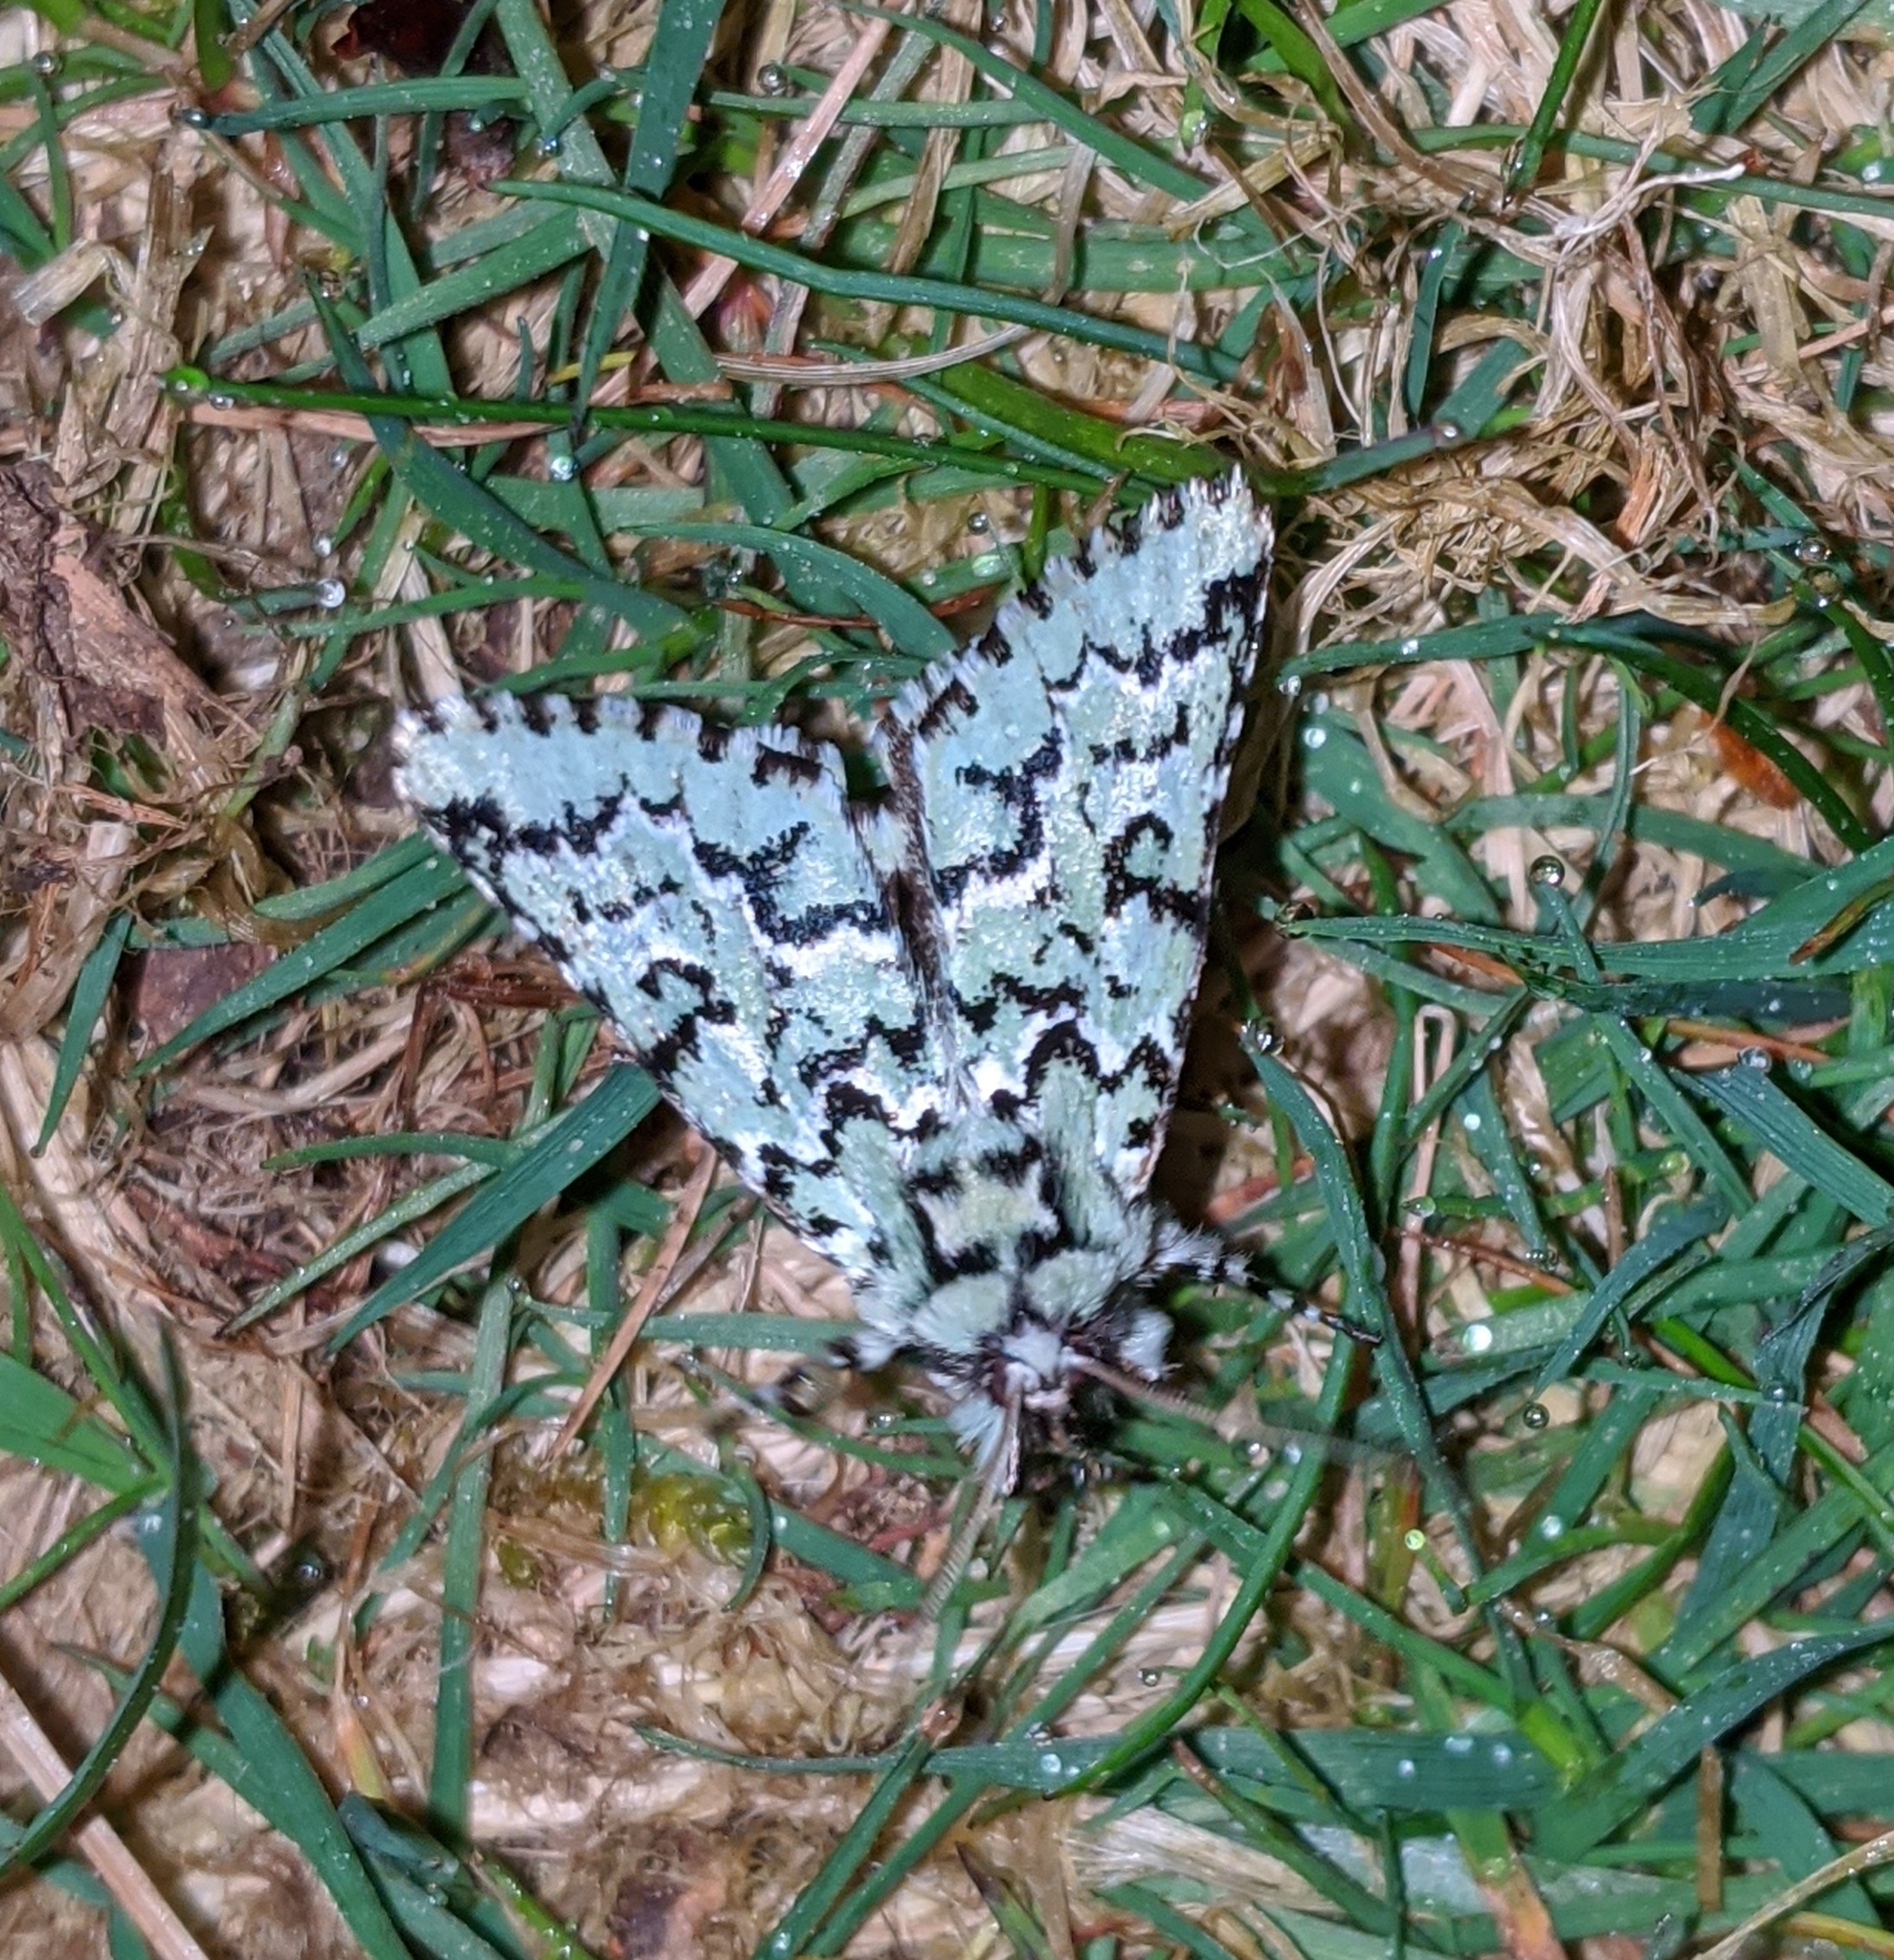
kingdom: Animalia
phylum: Arthropoda
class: Insecta
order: Lepidoptera
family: Noctuidae
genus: Feralia
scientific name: Feralia deceptiva
